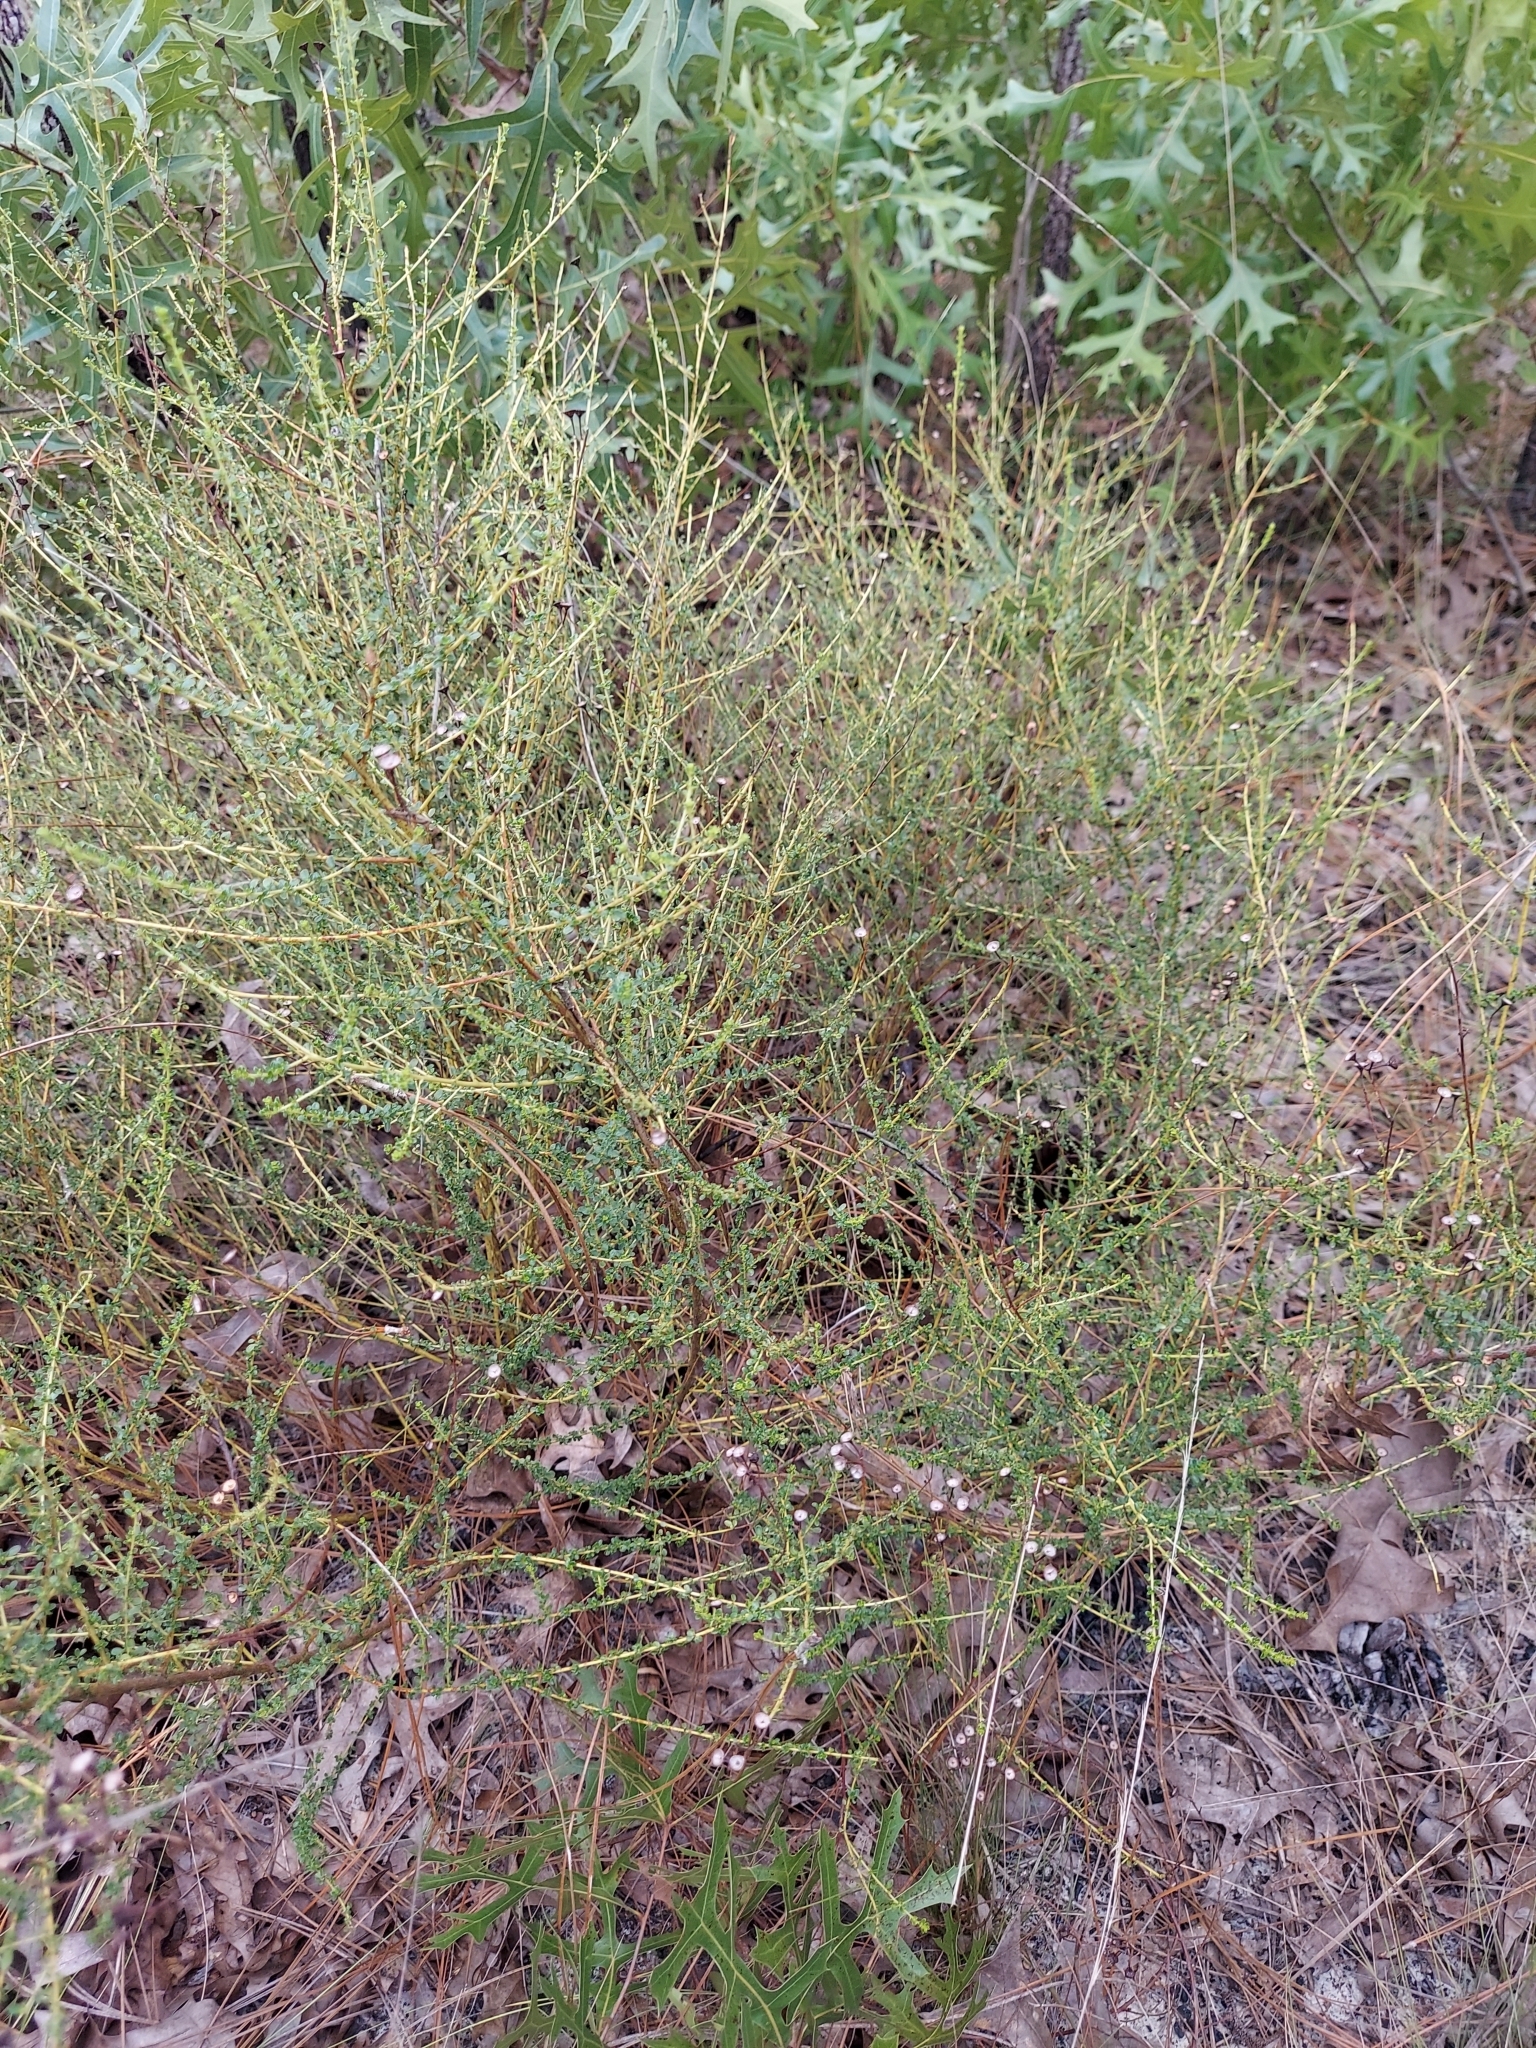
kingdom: Plantae
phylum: Tracheophyta
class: Magnoliopsida
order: Rosales
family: Rhamnaceae
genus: Ceanothus
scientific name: Ceanothus microphyllus
